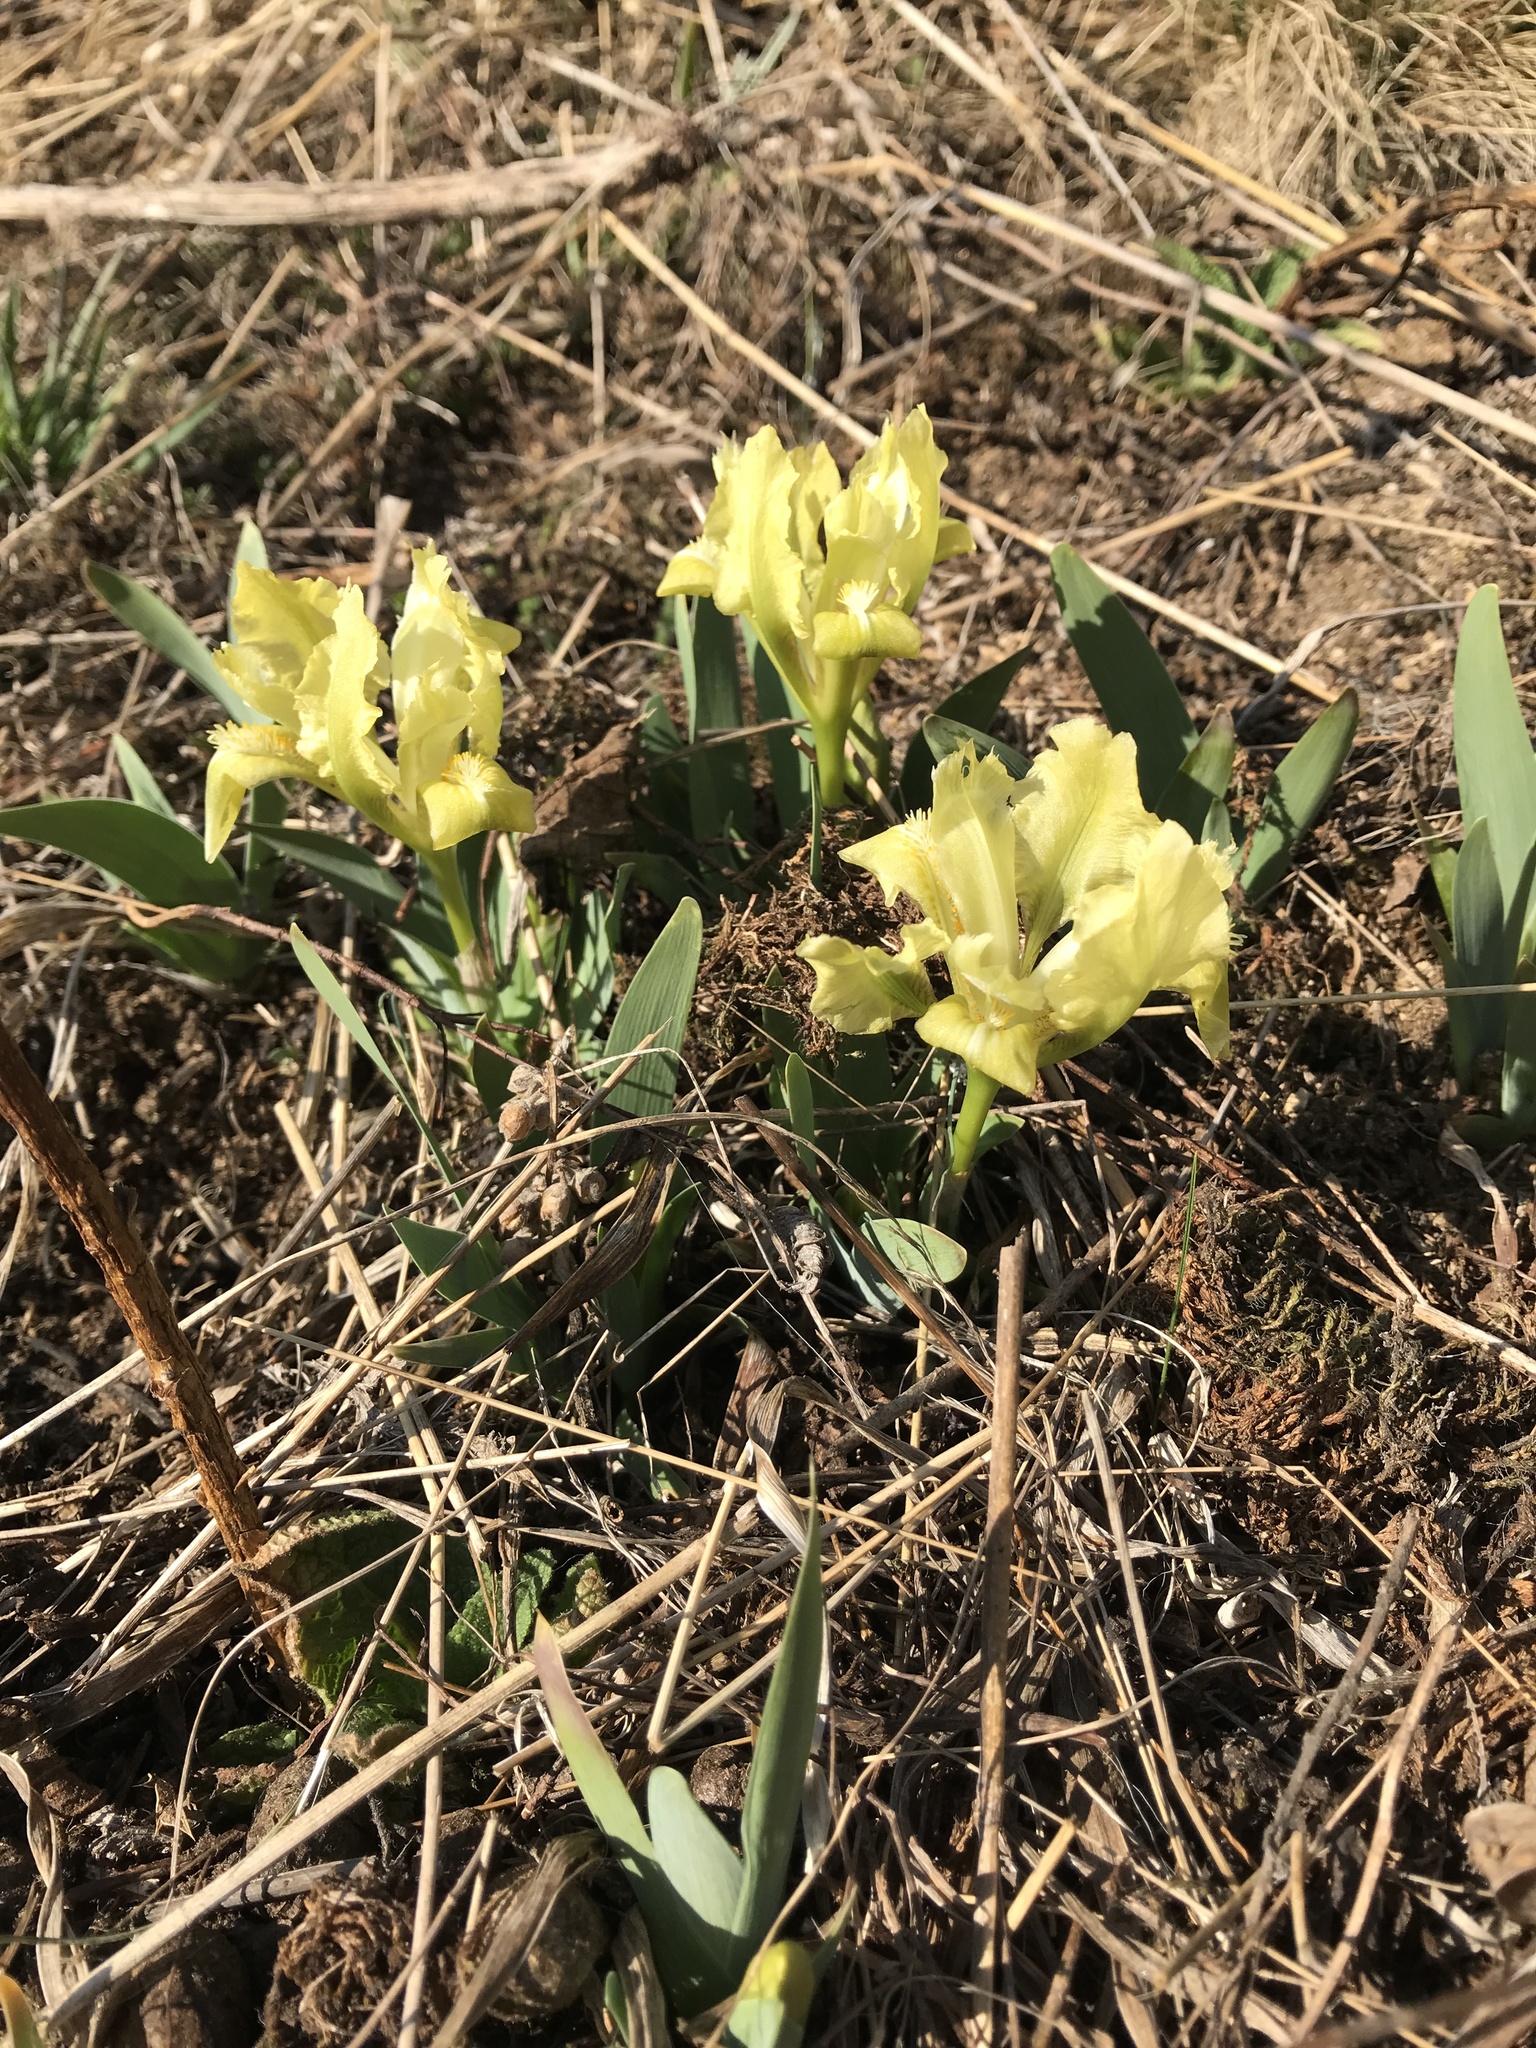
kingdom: Plantae
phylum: Tracheophyta
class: Liliopsida
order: Asparagales
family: Iridaceae
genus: Iris
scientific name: Iris pumila
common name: Dwarf iris
